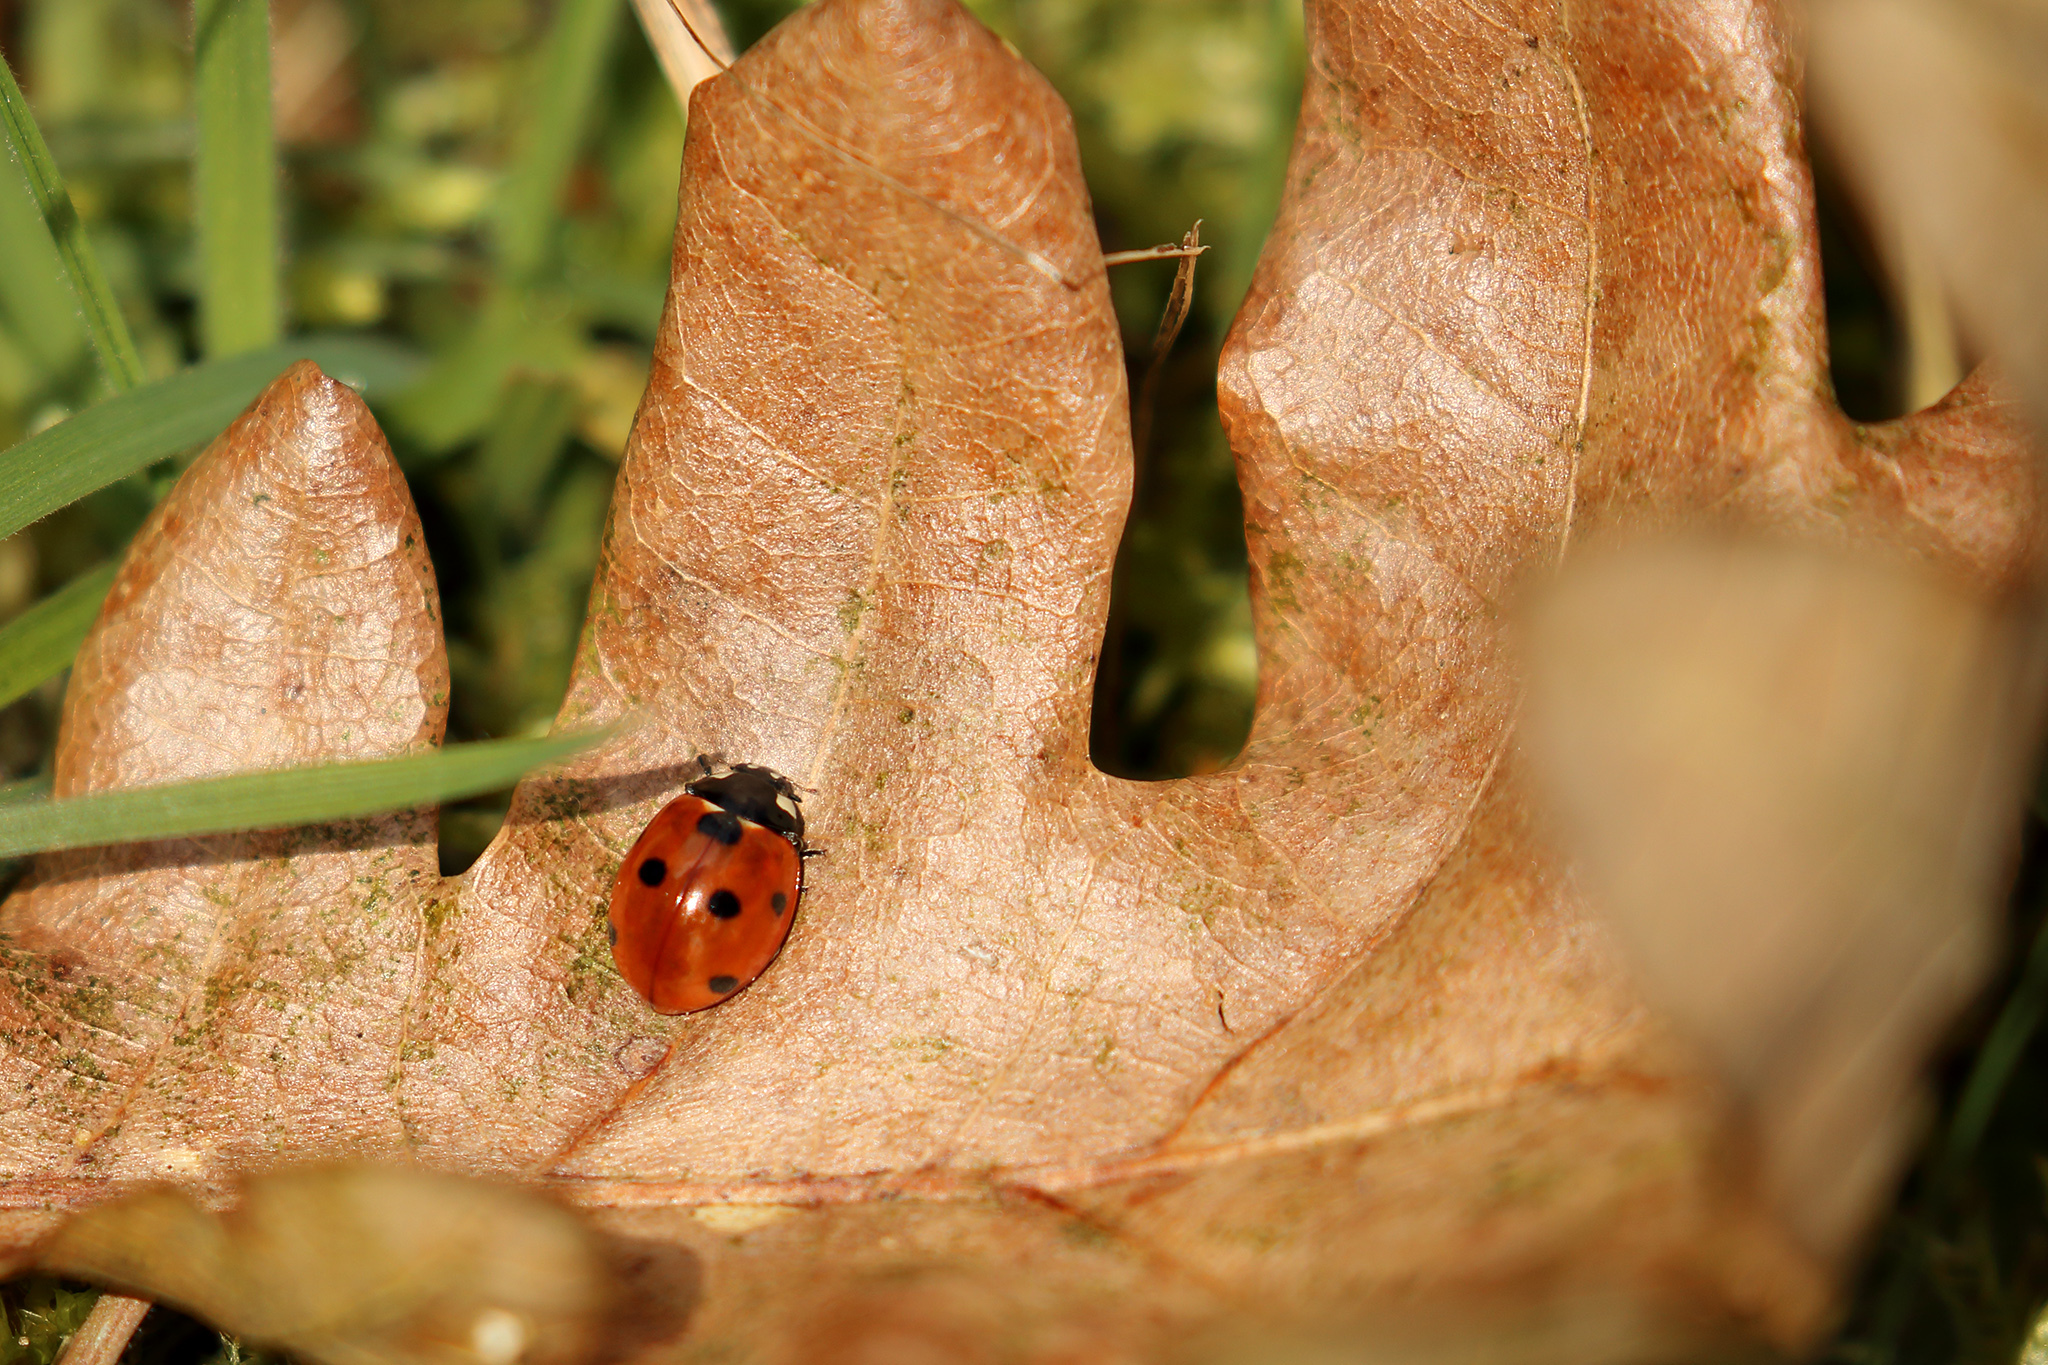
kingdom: Animalia
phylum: Arthropoda
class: Insecta
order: Coleoptera
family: Coccinellidae
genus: Coccinella
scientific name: Coccinella septempunctata
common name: Sevenspotted lady beetle
